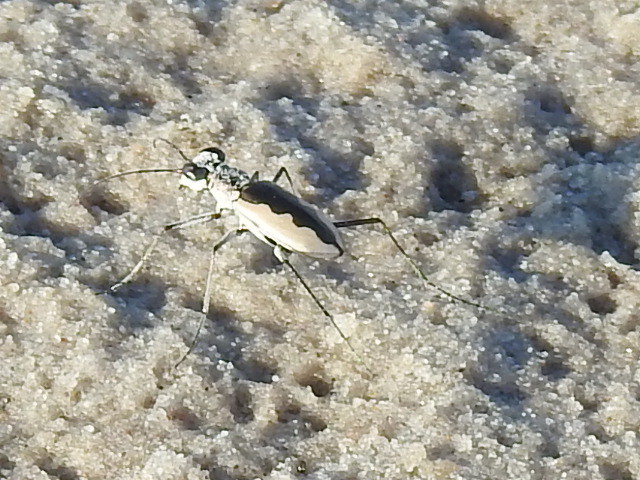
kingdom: Animalia
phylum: Arthropoda
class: Insecta
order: Coleoptera
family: Carabidae
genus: Eunota
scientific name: Eunota togata
